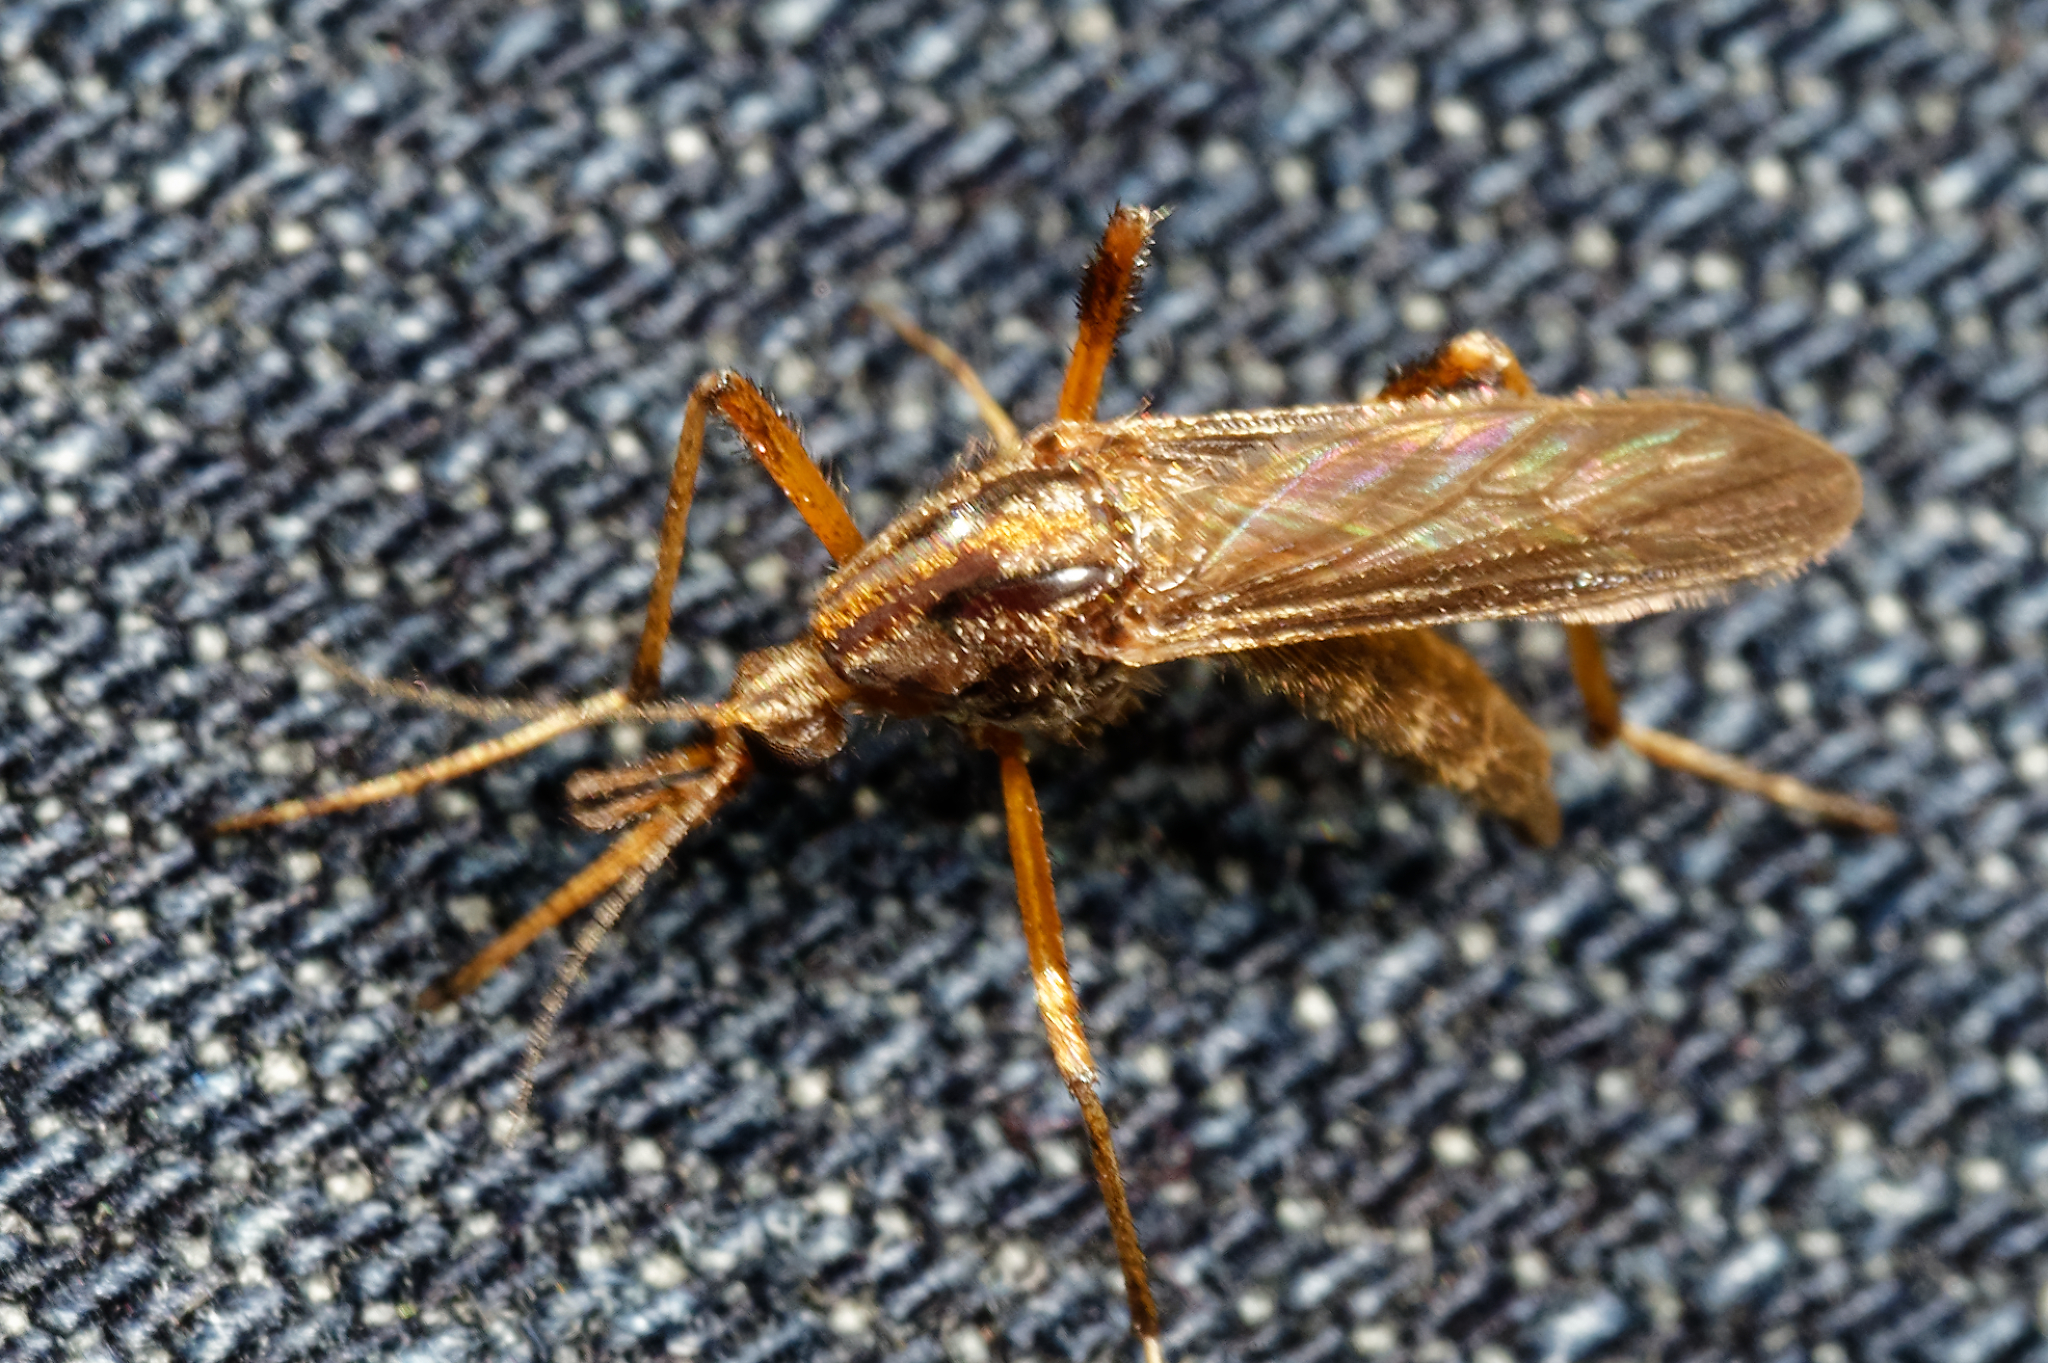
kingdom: Animalia
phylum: Arthropoda
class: Insecta
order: Diptera
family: Culicidae
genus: Psorophora
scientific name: Psorophora ciliata
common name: Gallinipper
